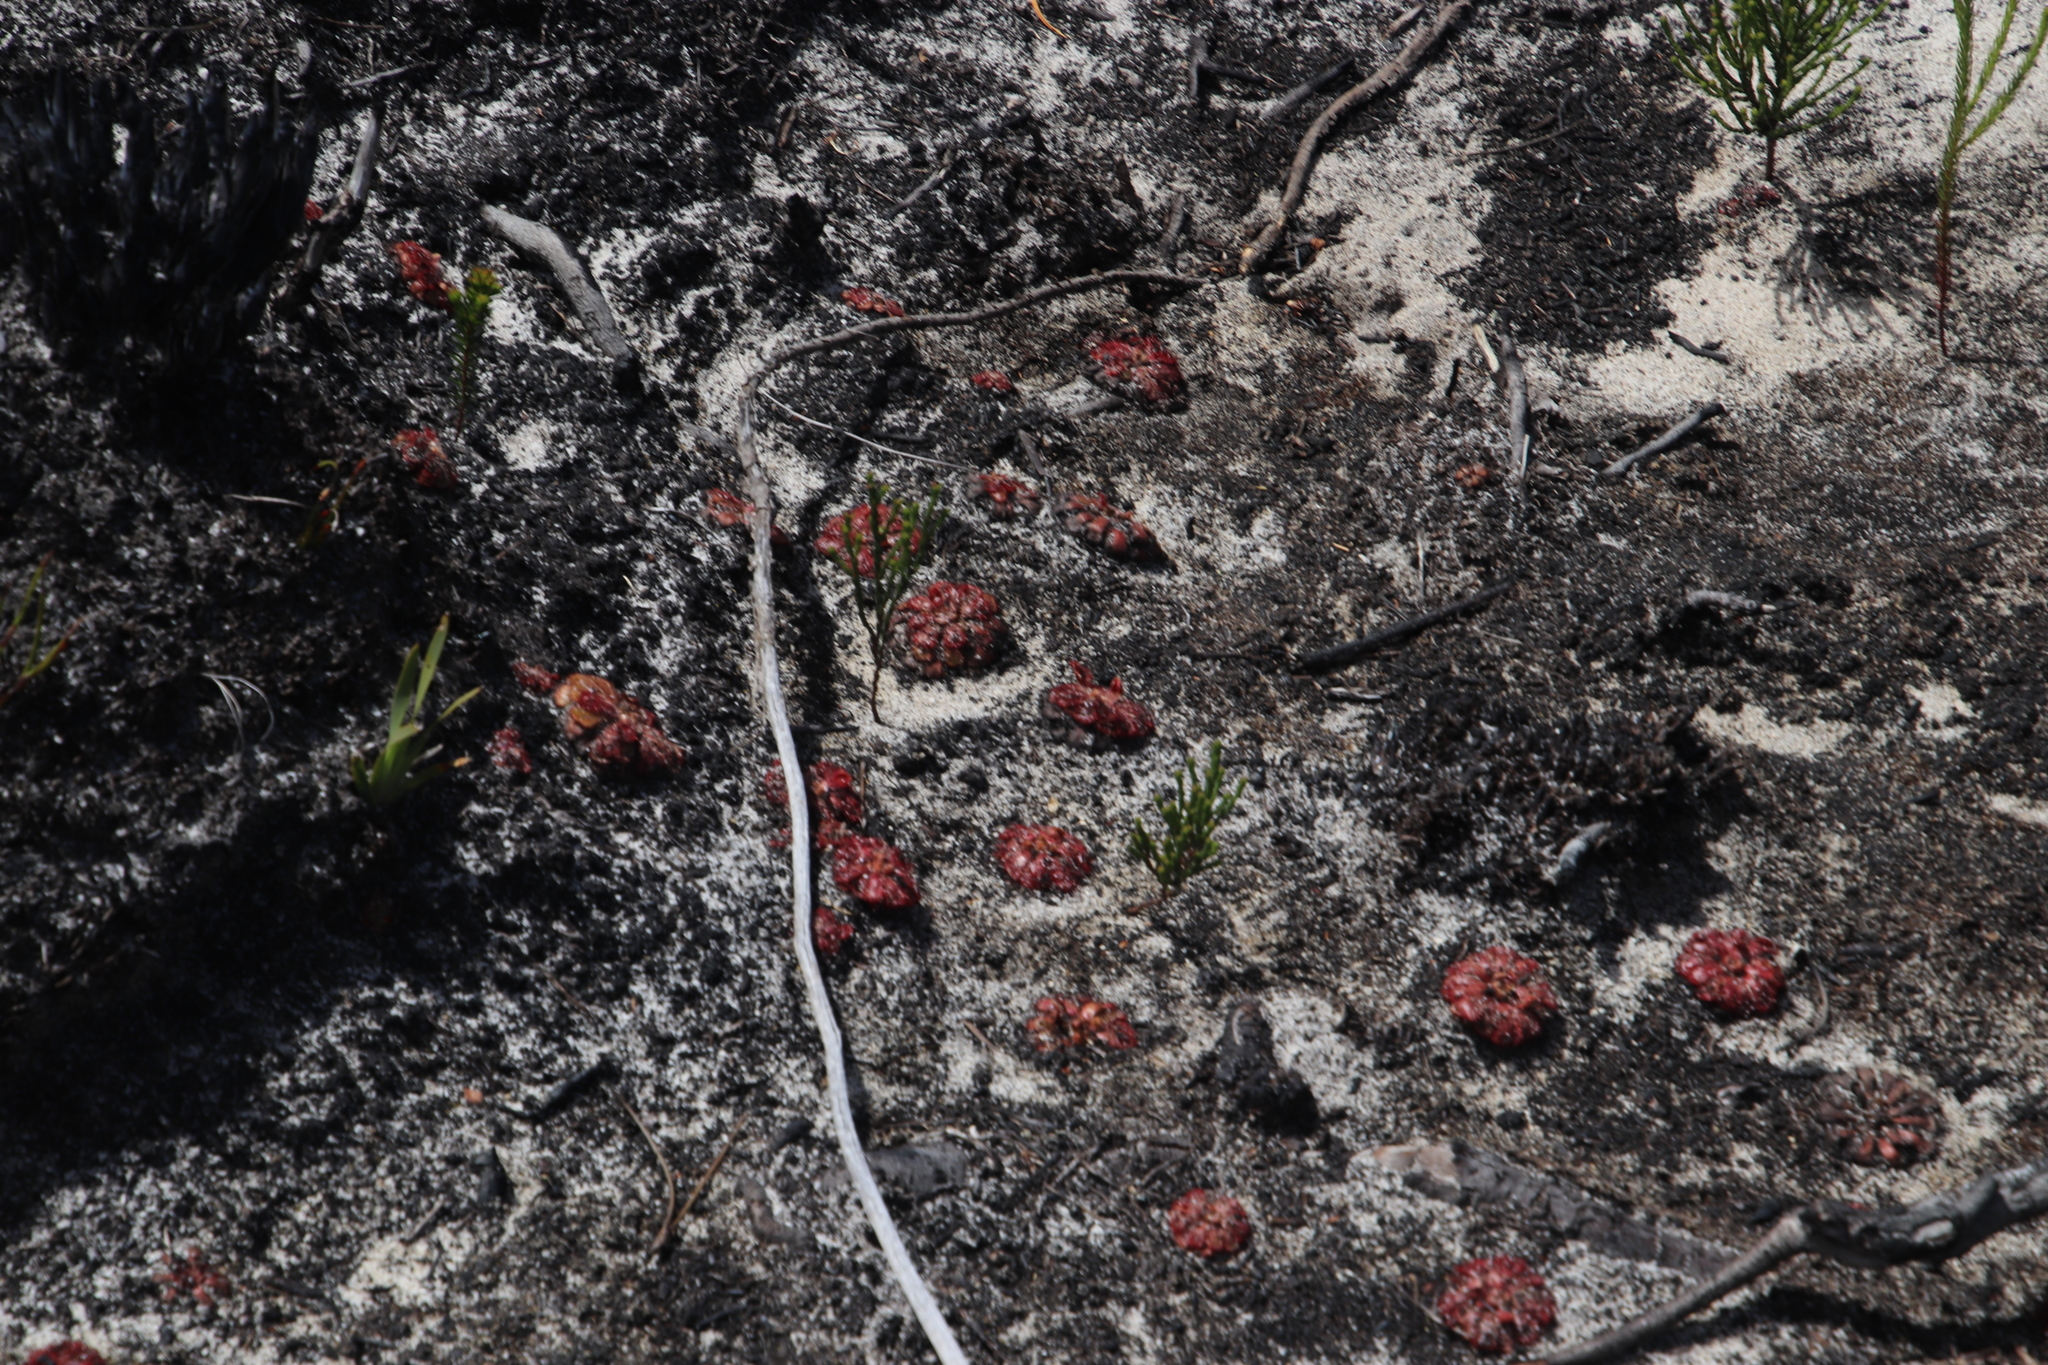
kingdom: Plantae
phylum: Tracheophyta
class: Magnoliopsida
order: Caryophyllales
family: Droseraceae
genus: Drosera
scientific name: Drosera aliciae
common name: Alice sundew
